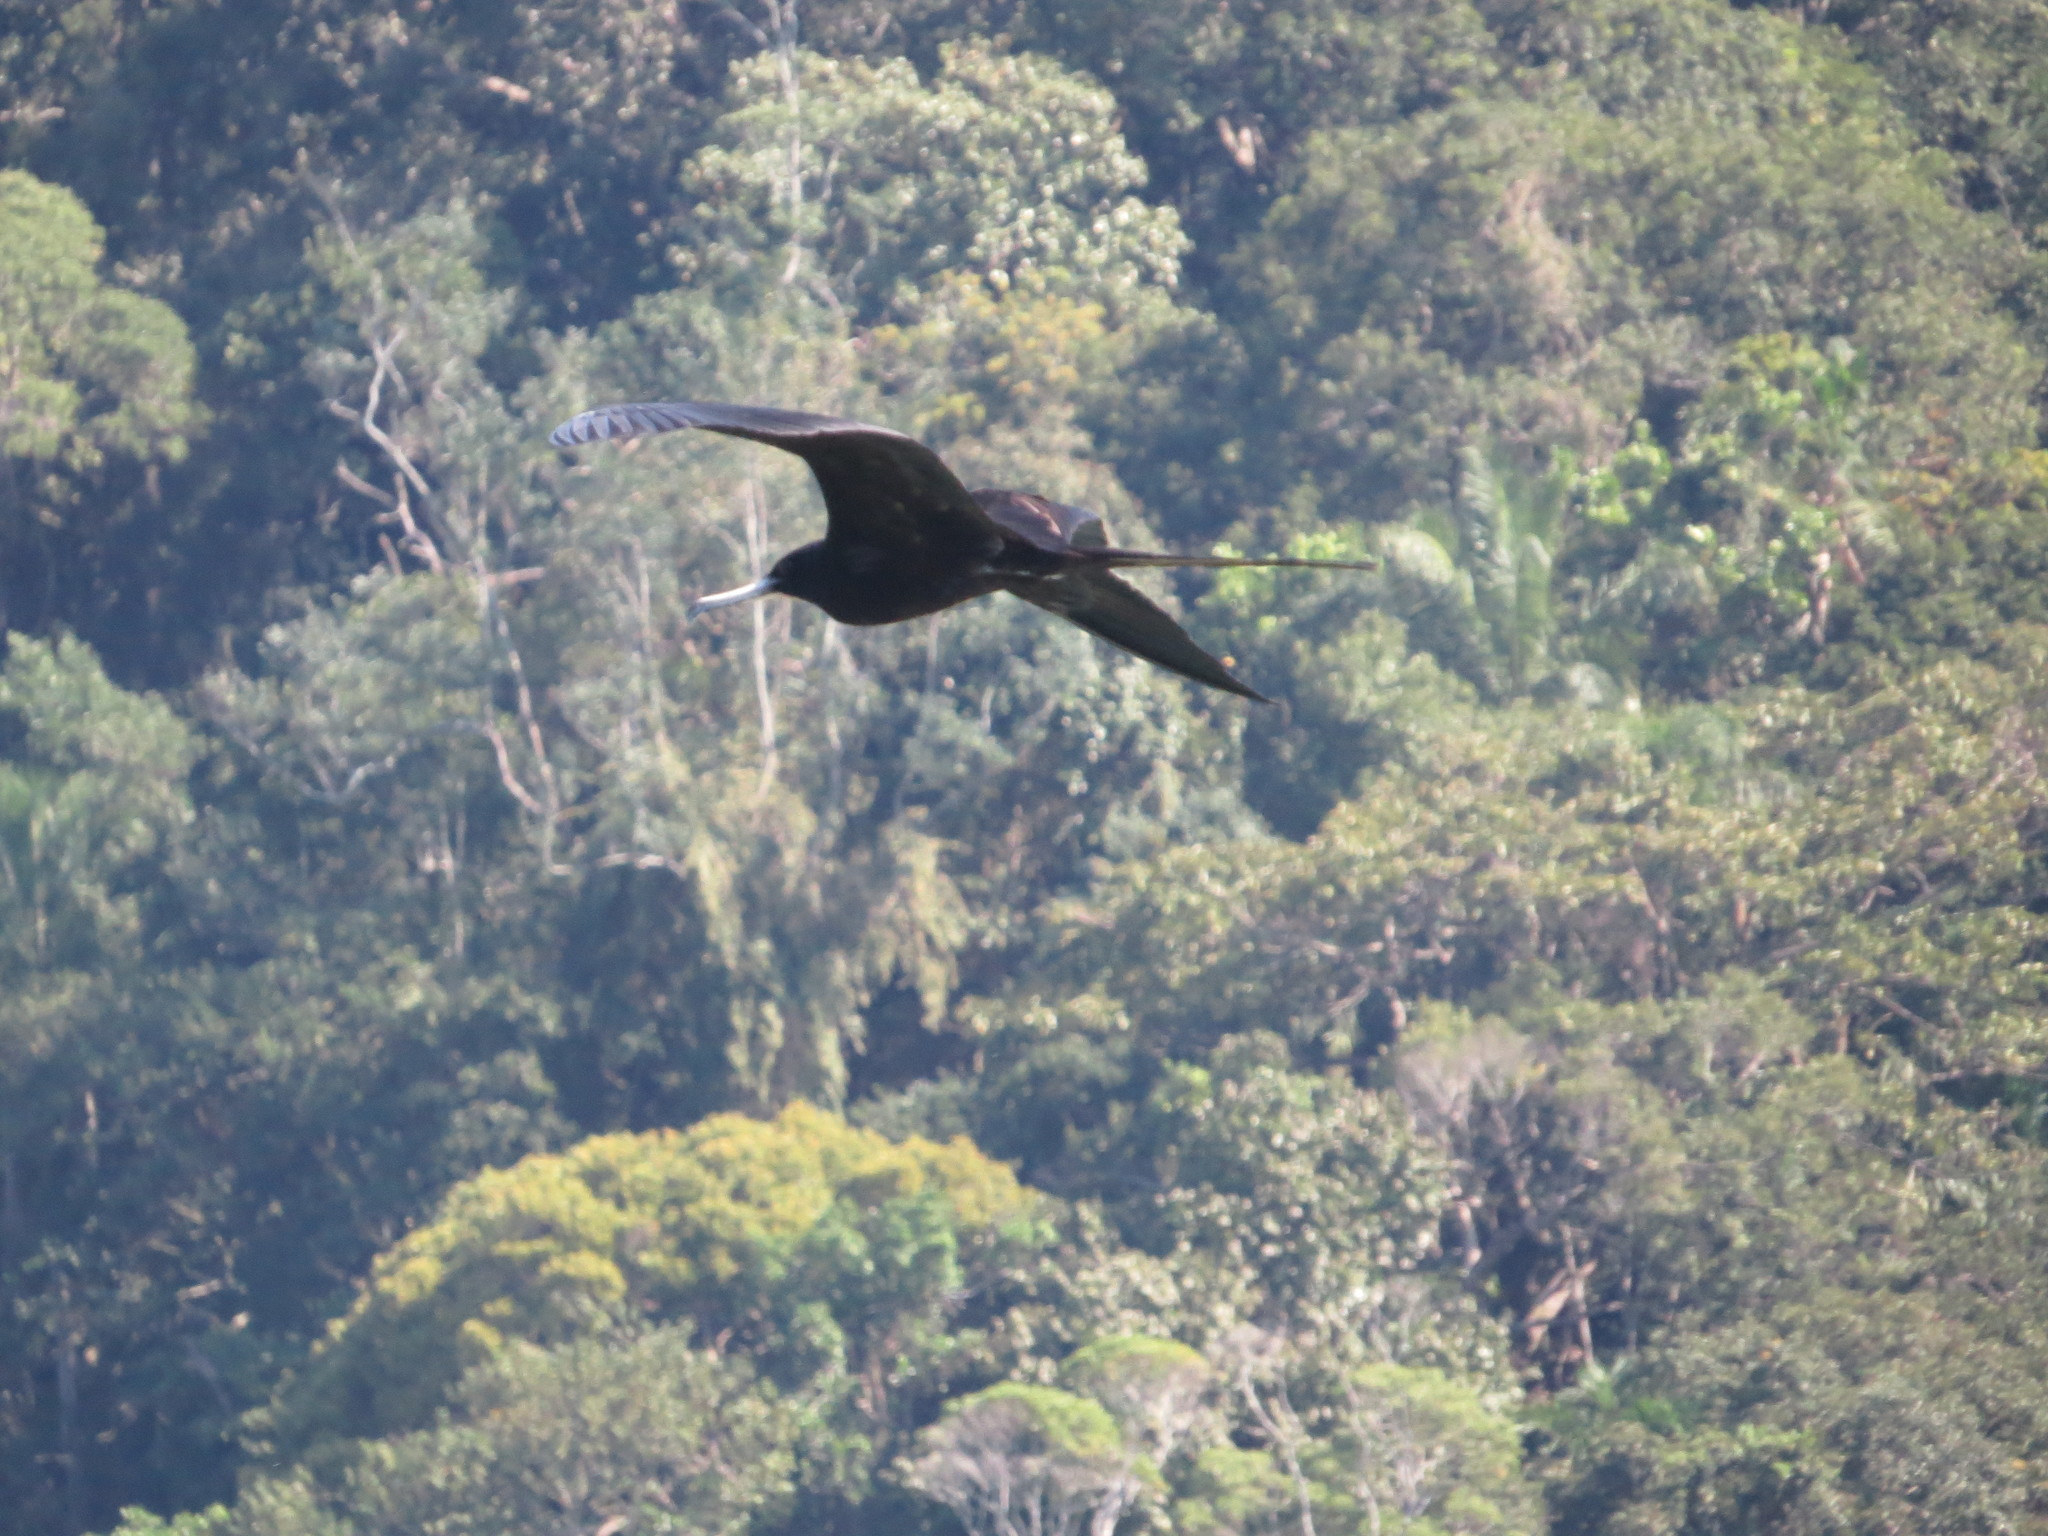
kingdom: Animalia
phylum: Chordata
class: Aves
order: Suliformes
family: Fregatidae
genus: Fregata
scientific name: Fregata magnificens
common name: Magnificent frigatebird
